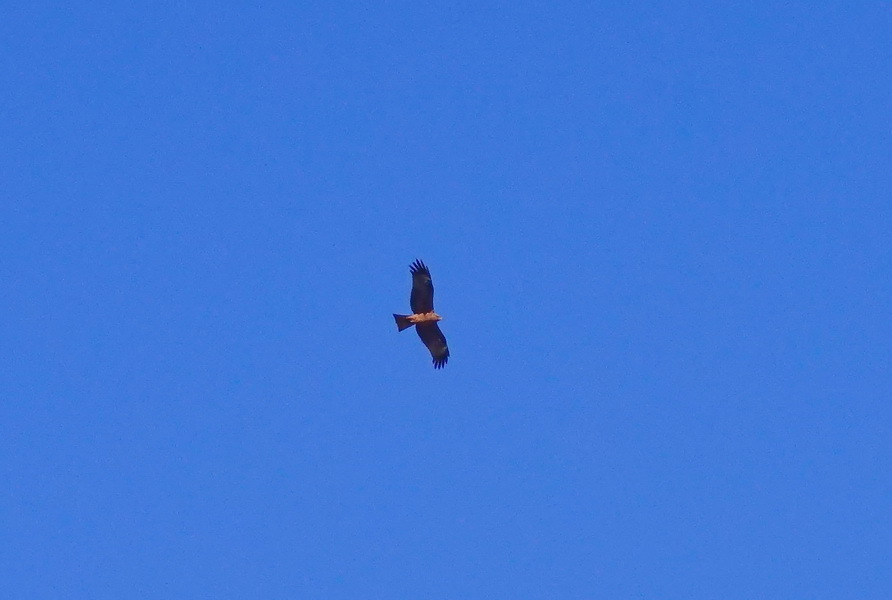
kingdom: Animalia
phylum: Chordata
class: Aves
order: Accipitriformes
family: Accipitridae
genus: Milvus
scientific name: Milvus migrans
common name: Black kite
